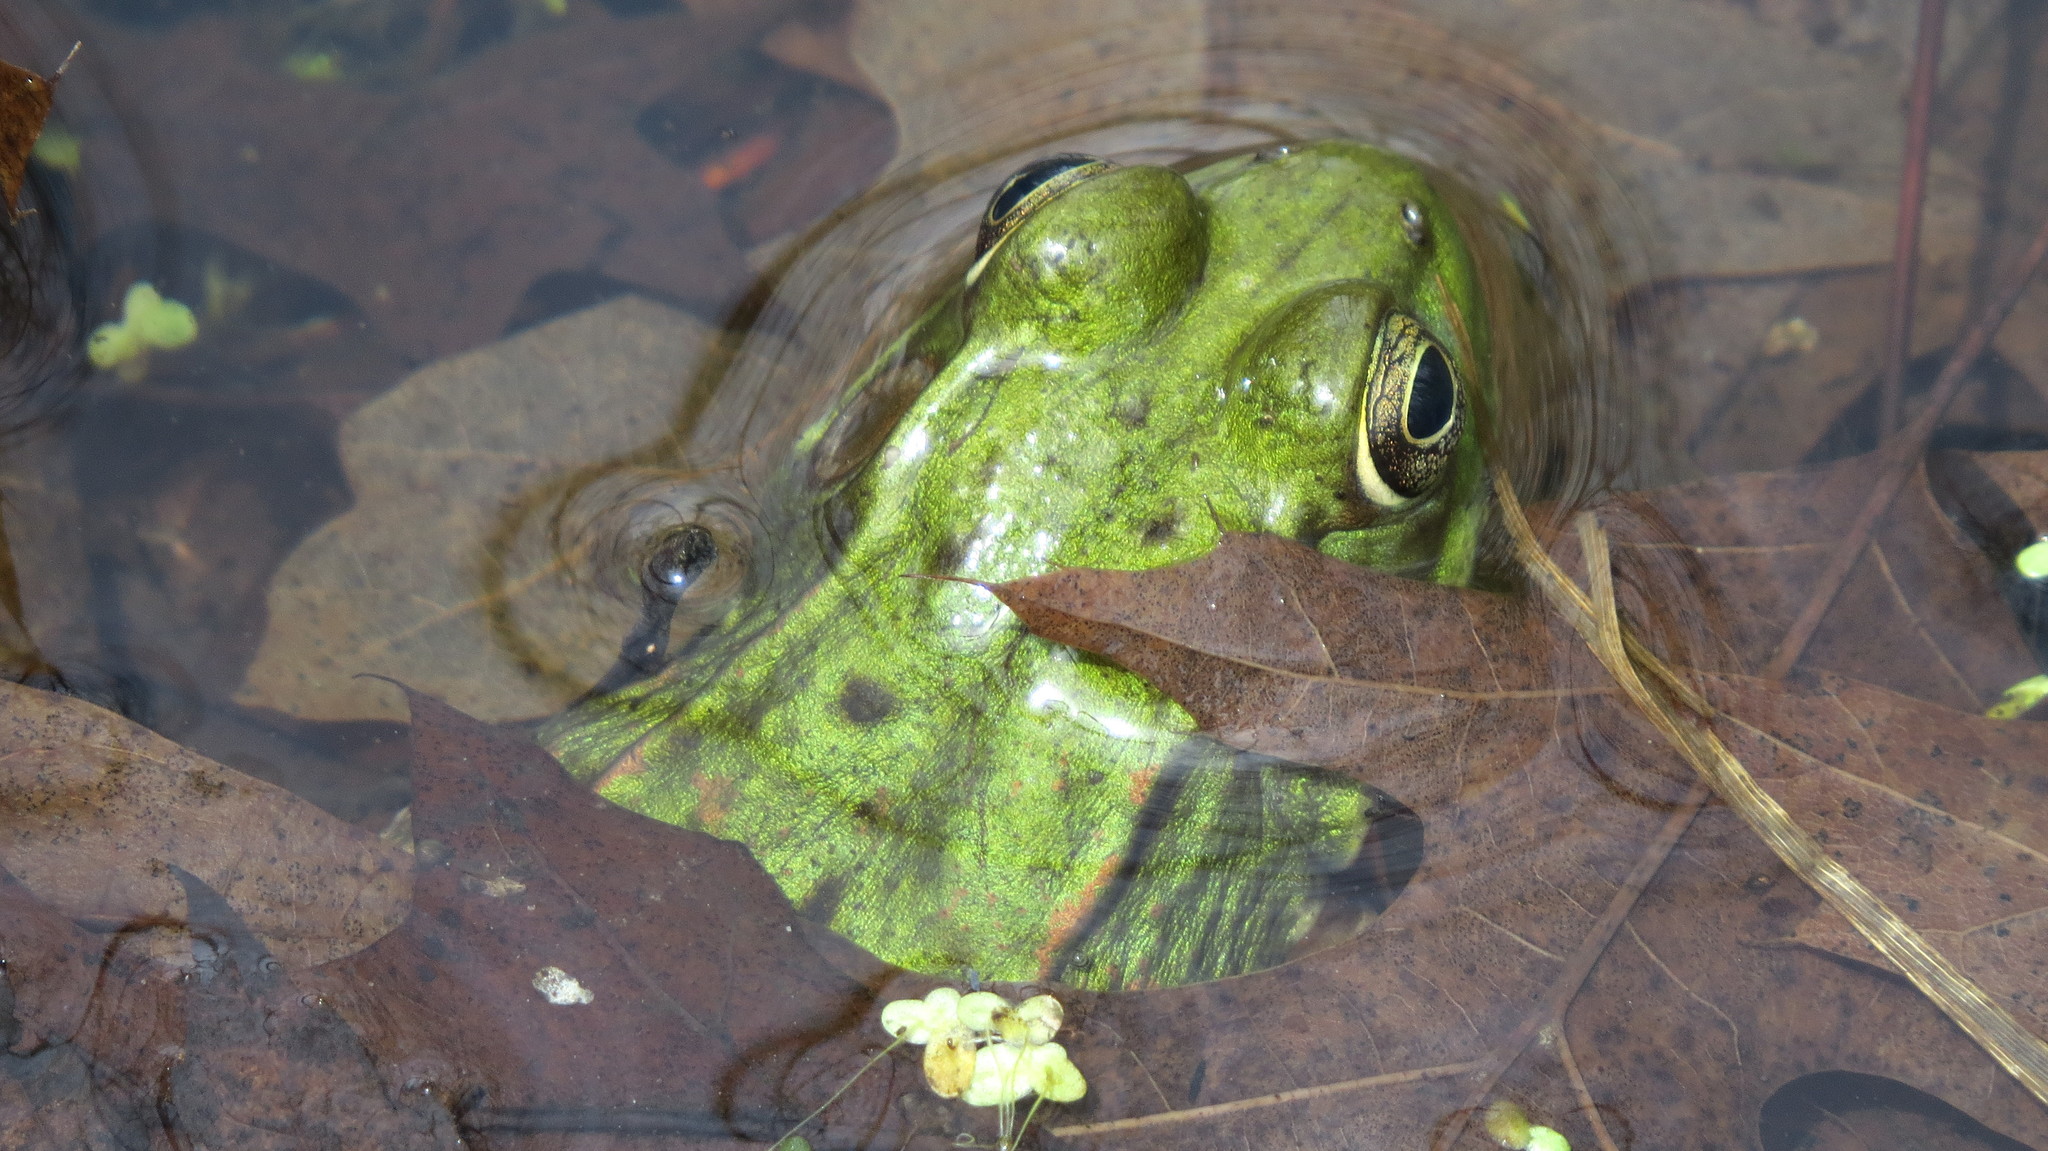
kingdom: Animalia
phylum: Chordata
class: Amphibia
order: Anura
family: Ranidae
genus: Lithobates
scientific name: Lithobates clamitans
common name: Green frog
